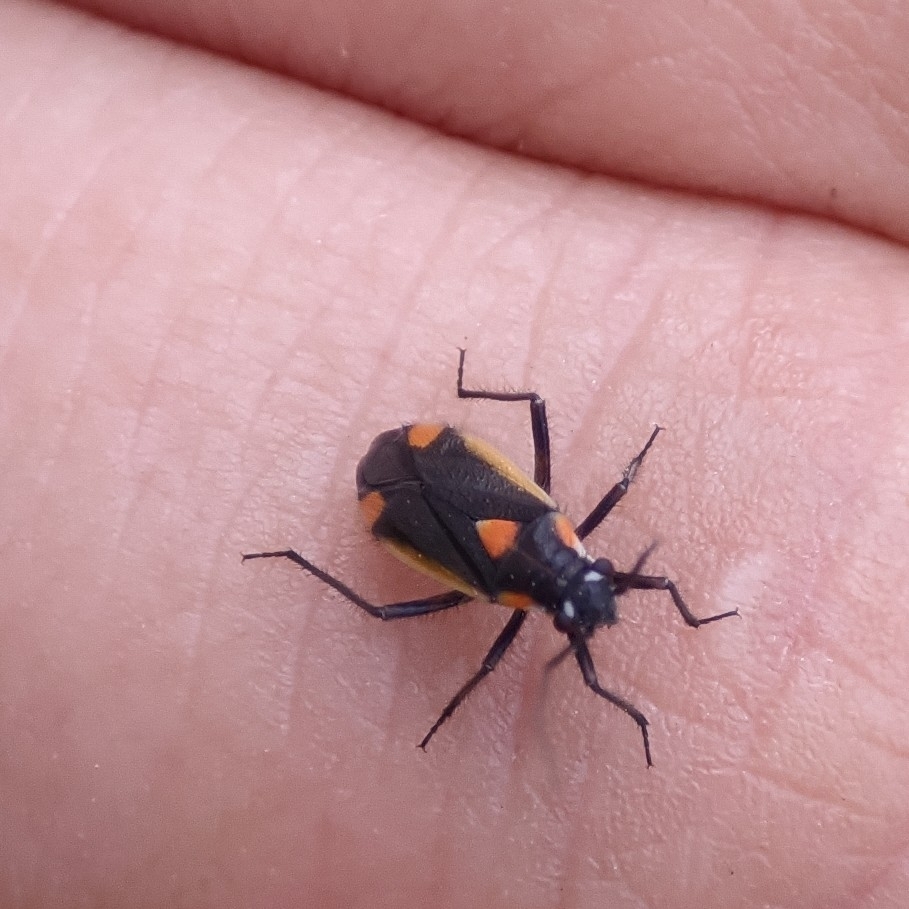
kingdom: Animalia
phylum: Arthropoda
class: Insecta
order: Hemiptera
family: Miridae
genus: Capsodes
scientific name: Capsodes gothicus
